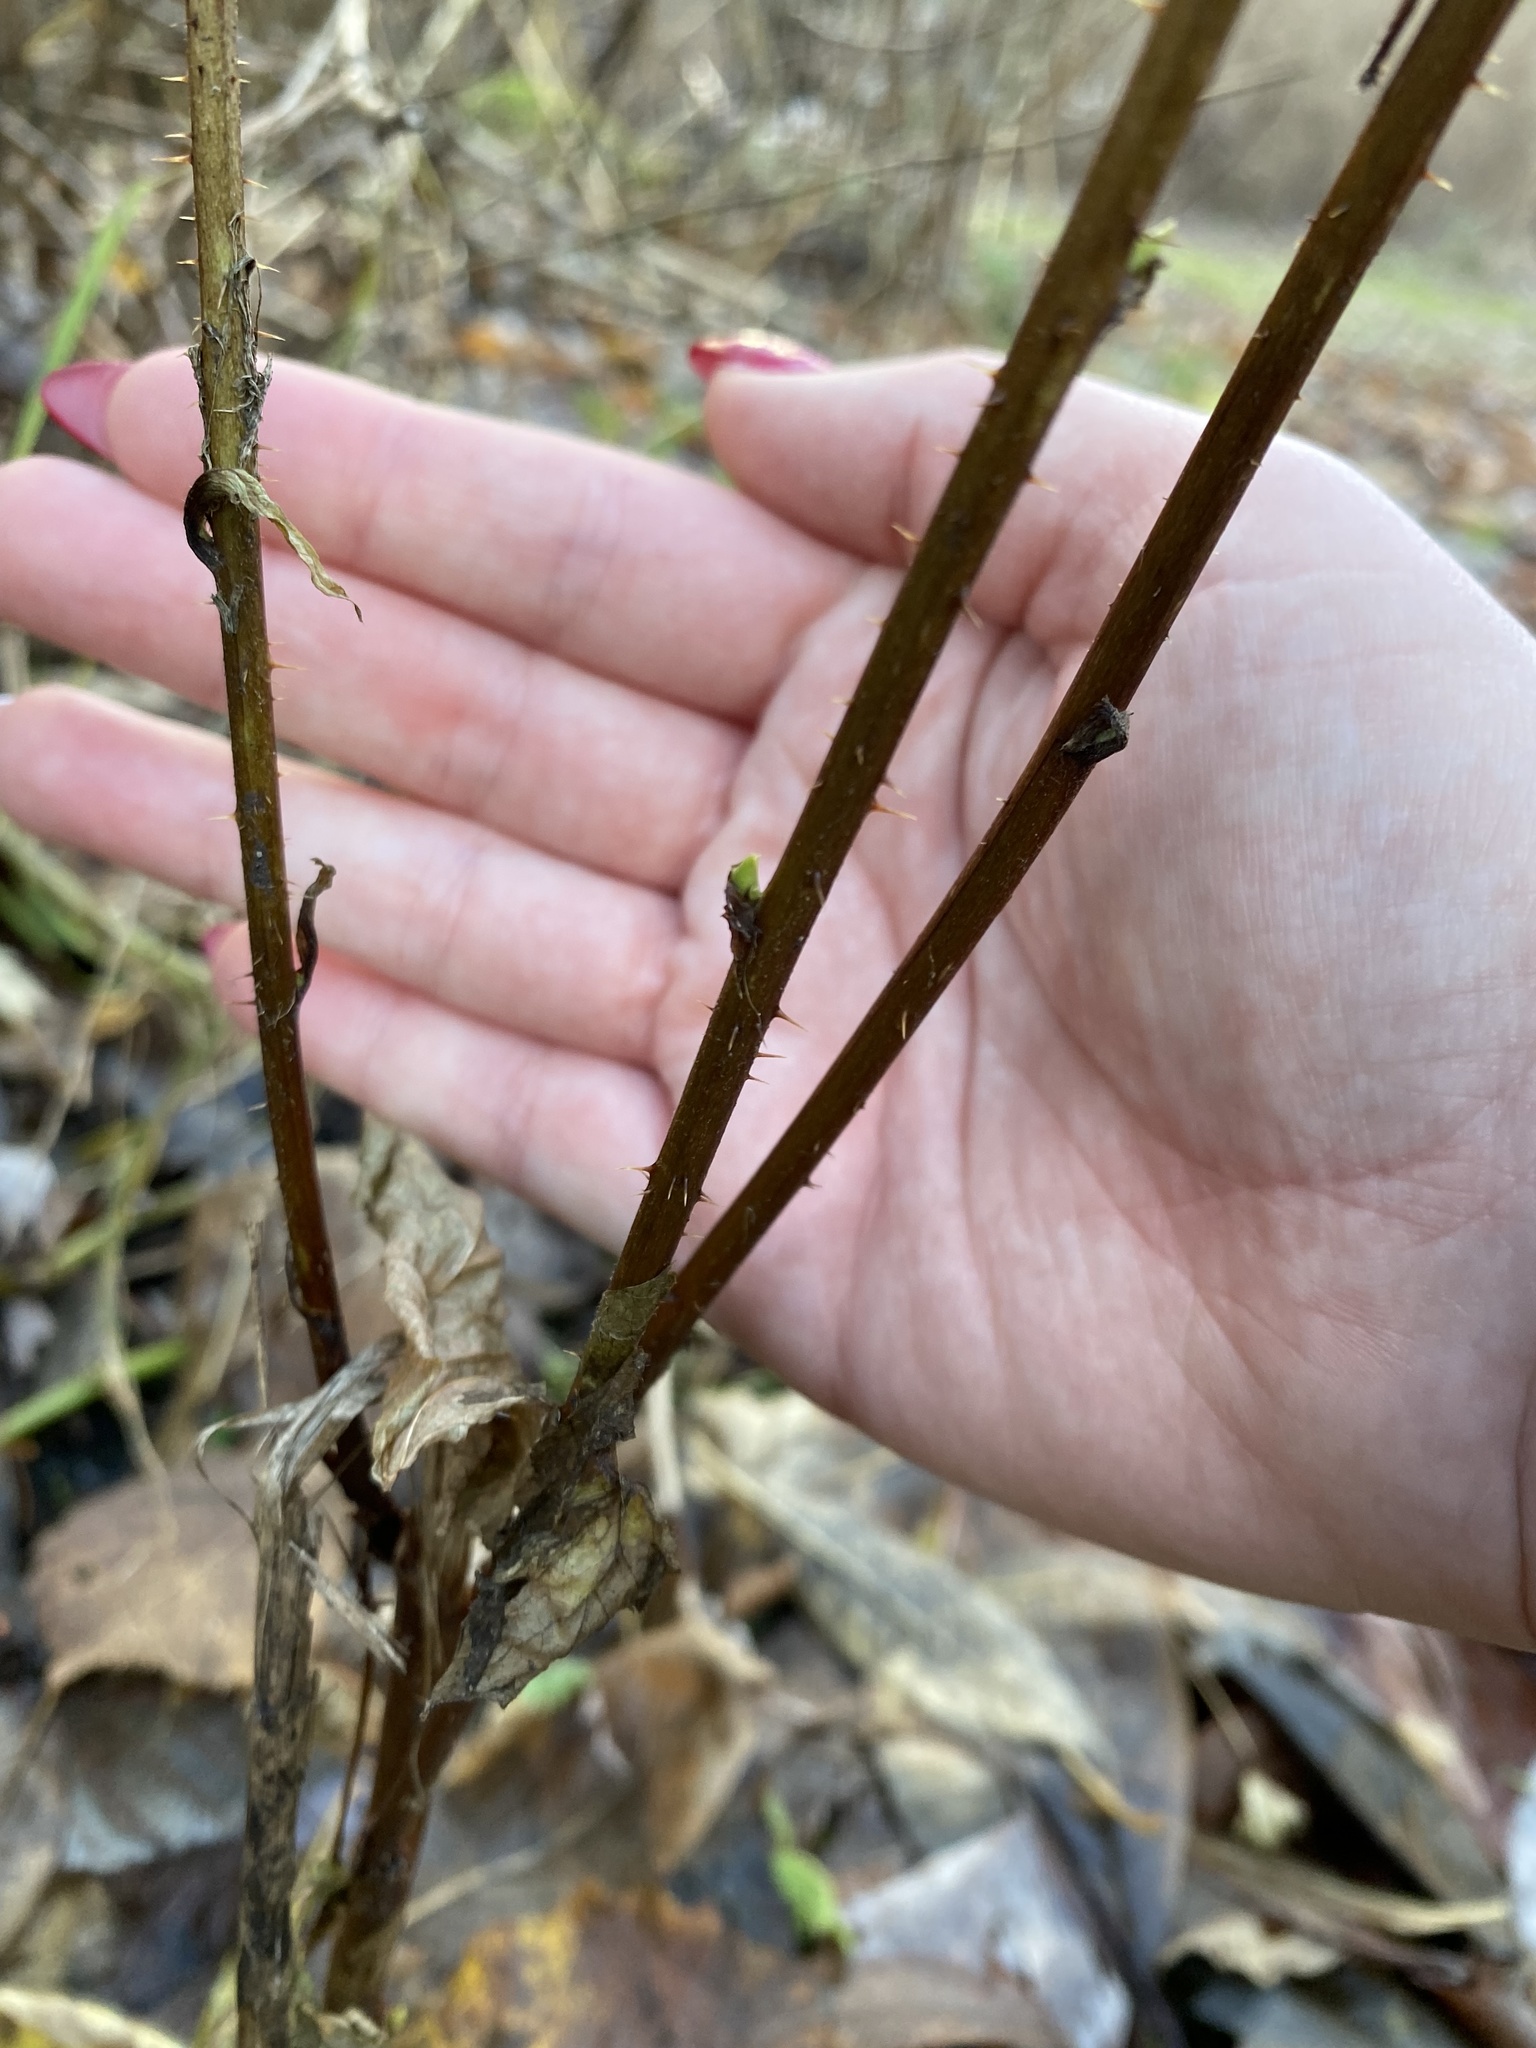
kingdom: Plantae
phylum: Tracheophyta
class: Magnoliopsida
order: Rosales
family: Rosaceae
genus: Rubus
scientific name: Rubus spectabilis
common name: Salmonberry
